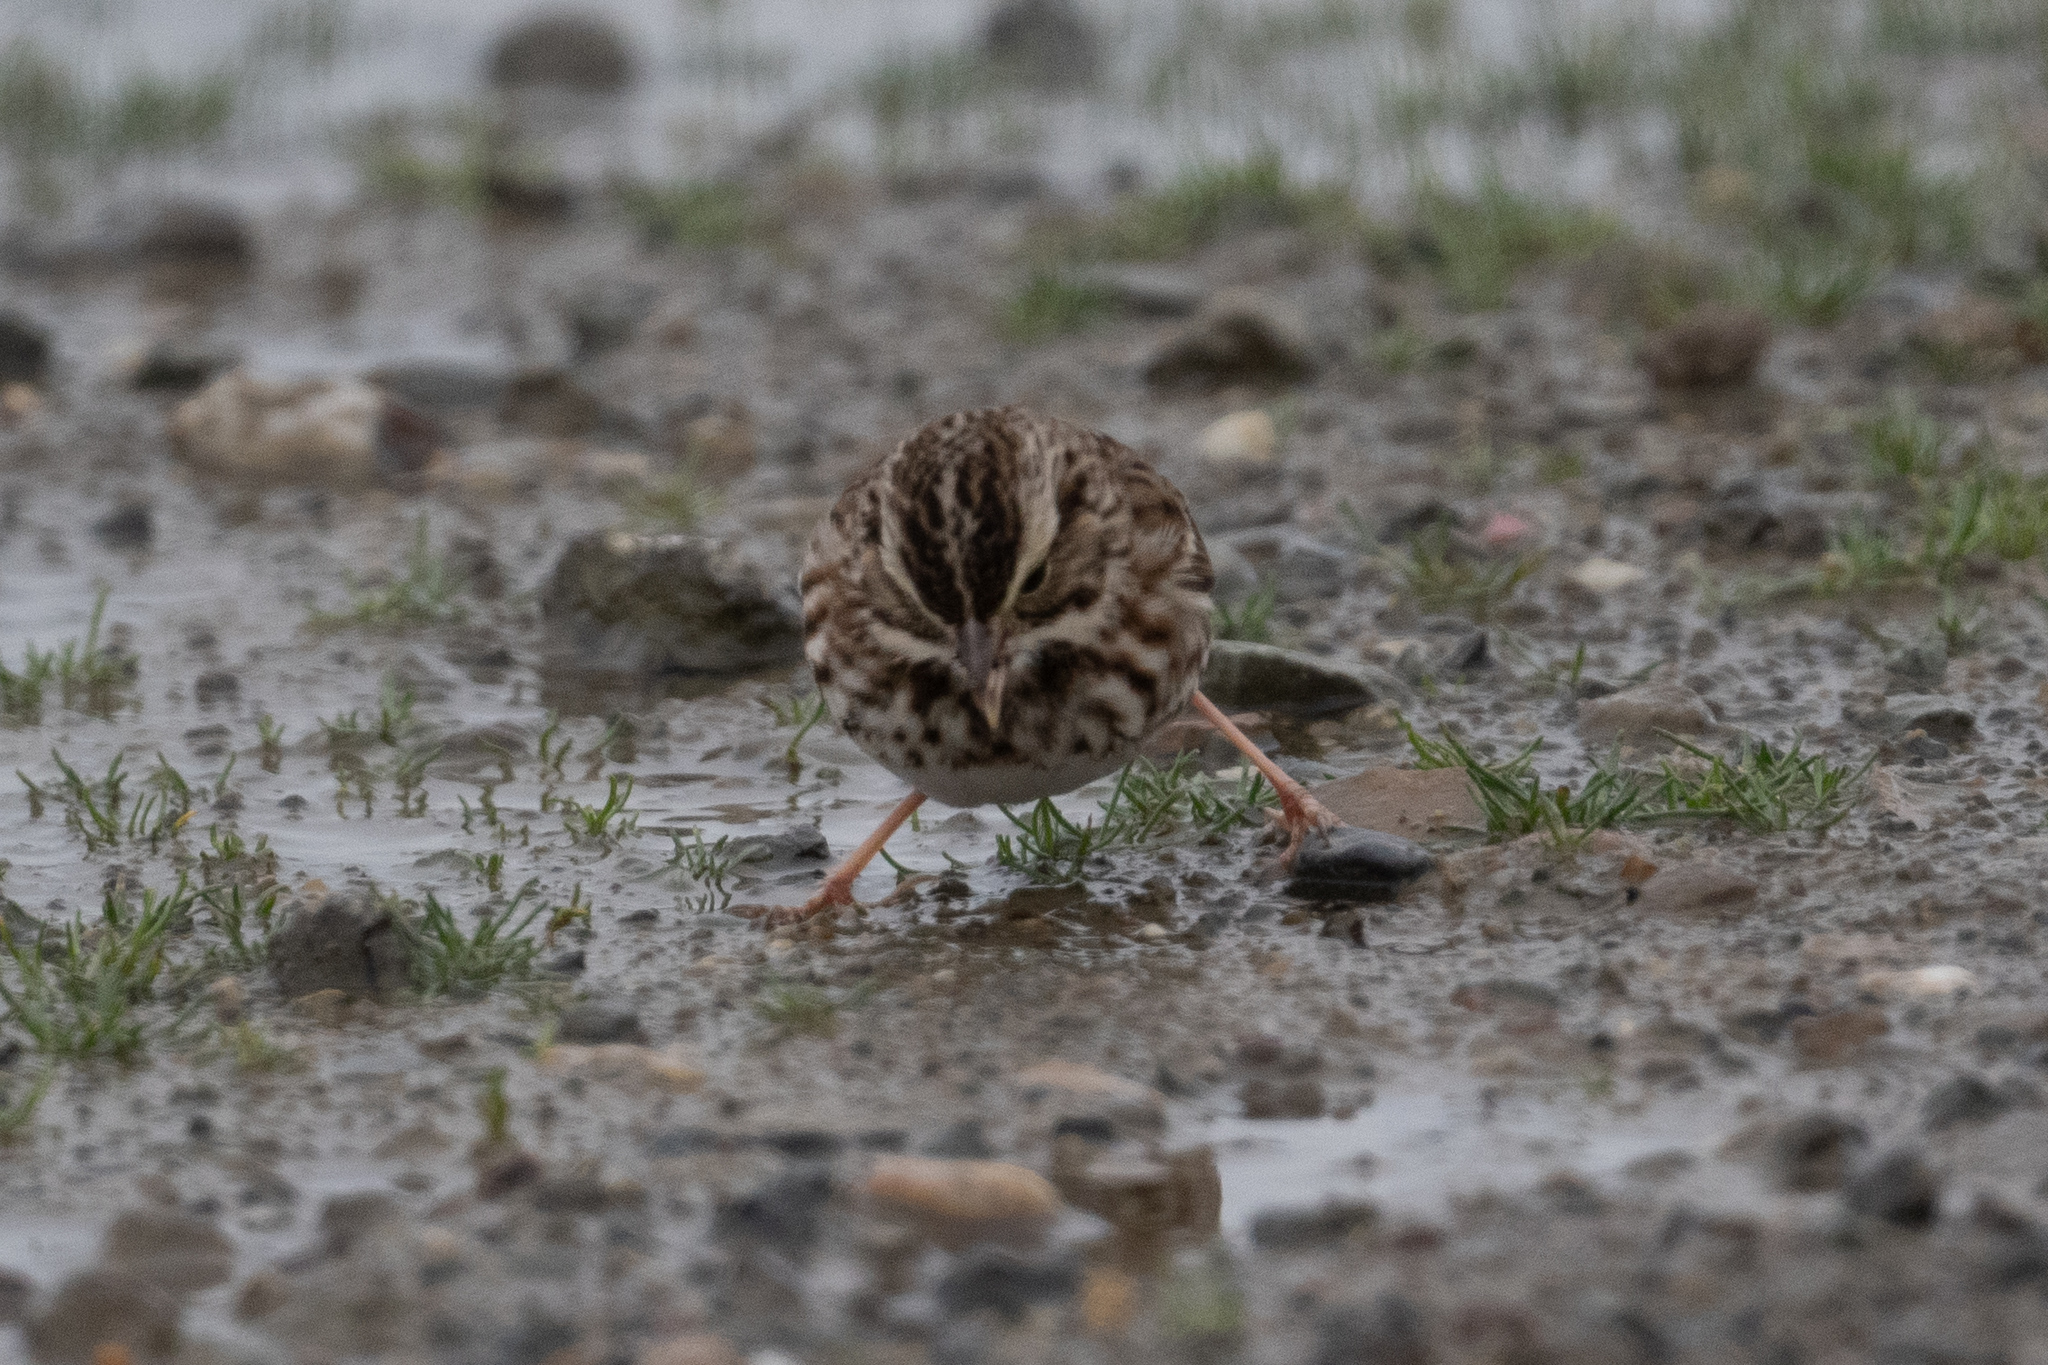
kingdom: Animalia
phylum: Chordata
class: Aves
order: Passeriformes
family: Passerellidae
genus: Passerculus
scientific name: Passerculus sandwichensis
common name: Savannah sparrow
